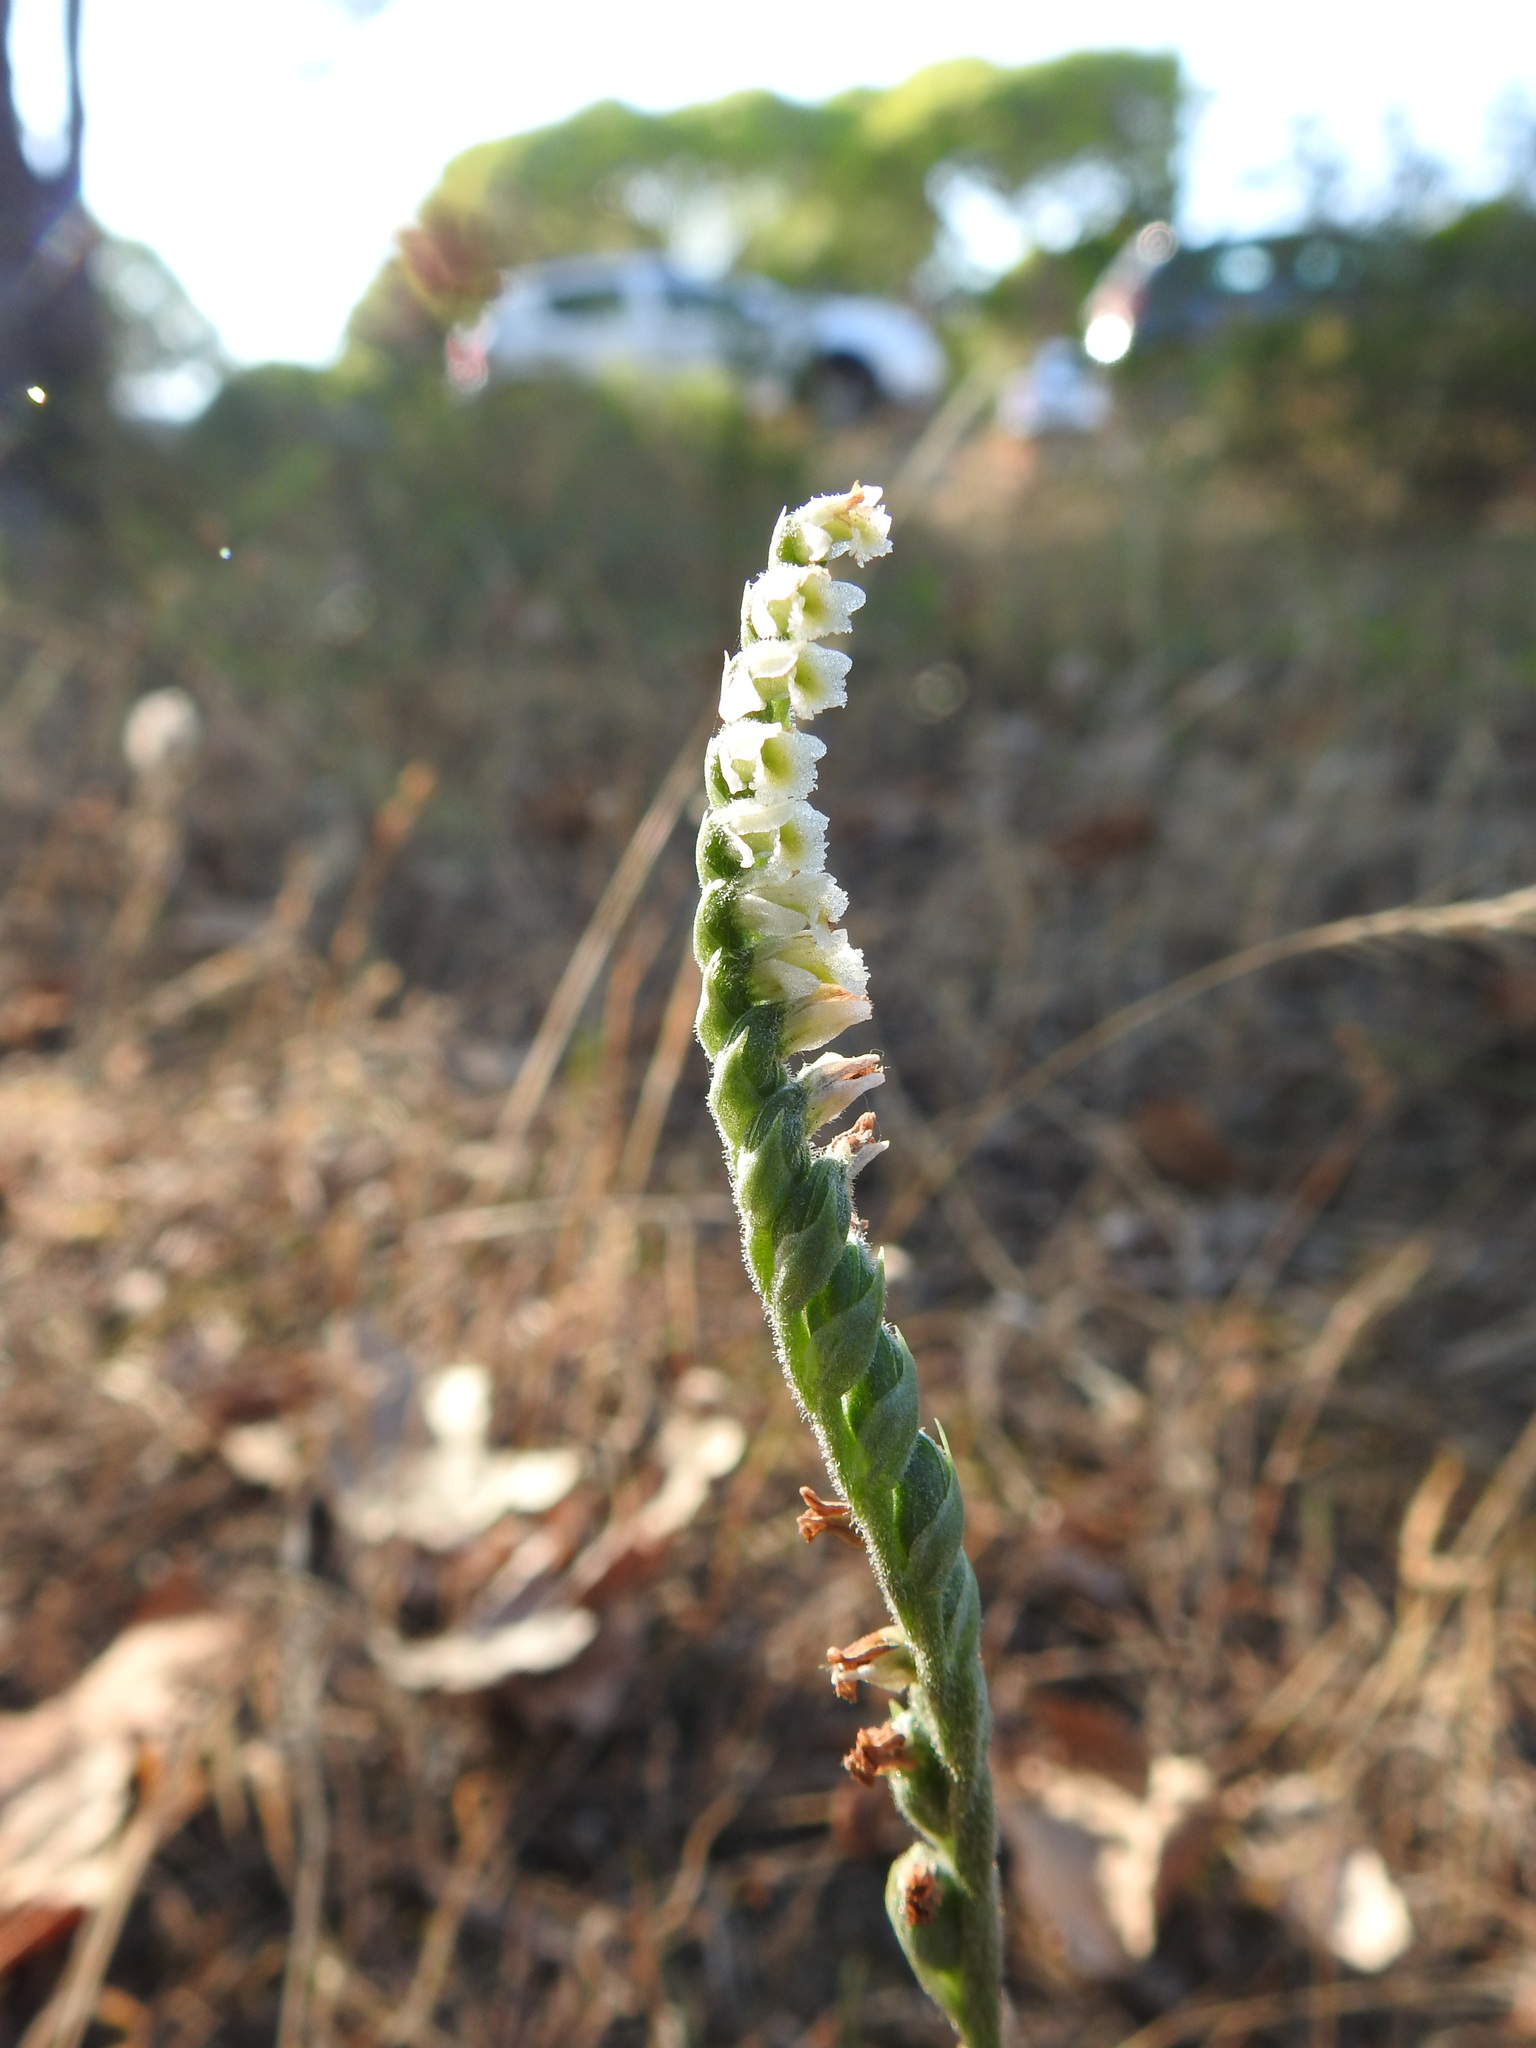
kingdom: Plantae
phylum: Tracheophyta
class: Liliopsida
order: Asparagales
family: Orchidaceae
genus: Spiranthes
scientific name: Spiranthes spiralis
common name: Autumn lady's-tresses
